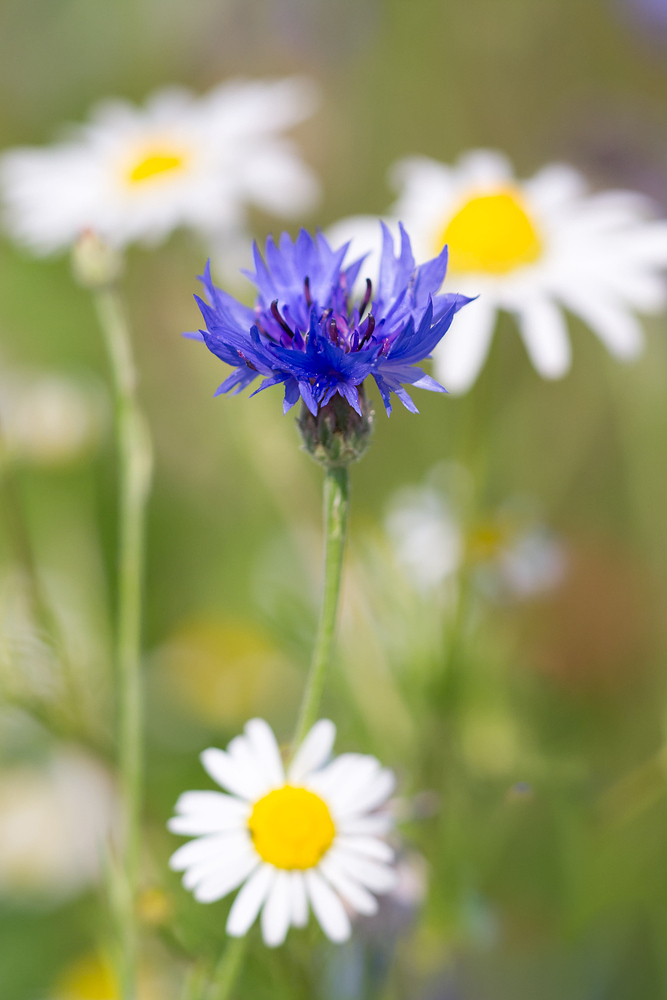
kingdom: Plantae
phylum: Tracheophyta
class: Magnoliopsida
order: Asterales
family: Asteraceae
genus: Centaurea
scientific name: Centaurea cyanus
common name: Cornflower
